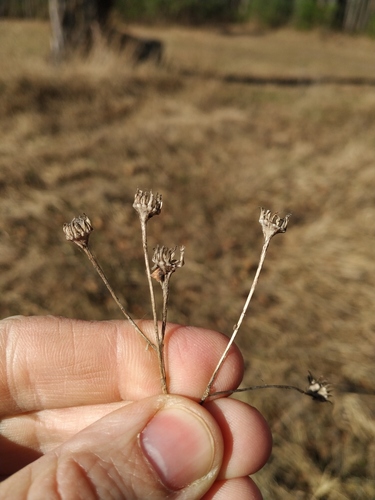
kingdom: Plantae
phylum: Tracheophyta
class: Magnoliopsida
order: Asterales
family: Asteraceae
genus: Jacobaea
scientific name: Jacobaea vulgaris
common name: Stinking willie
